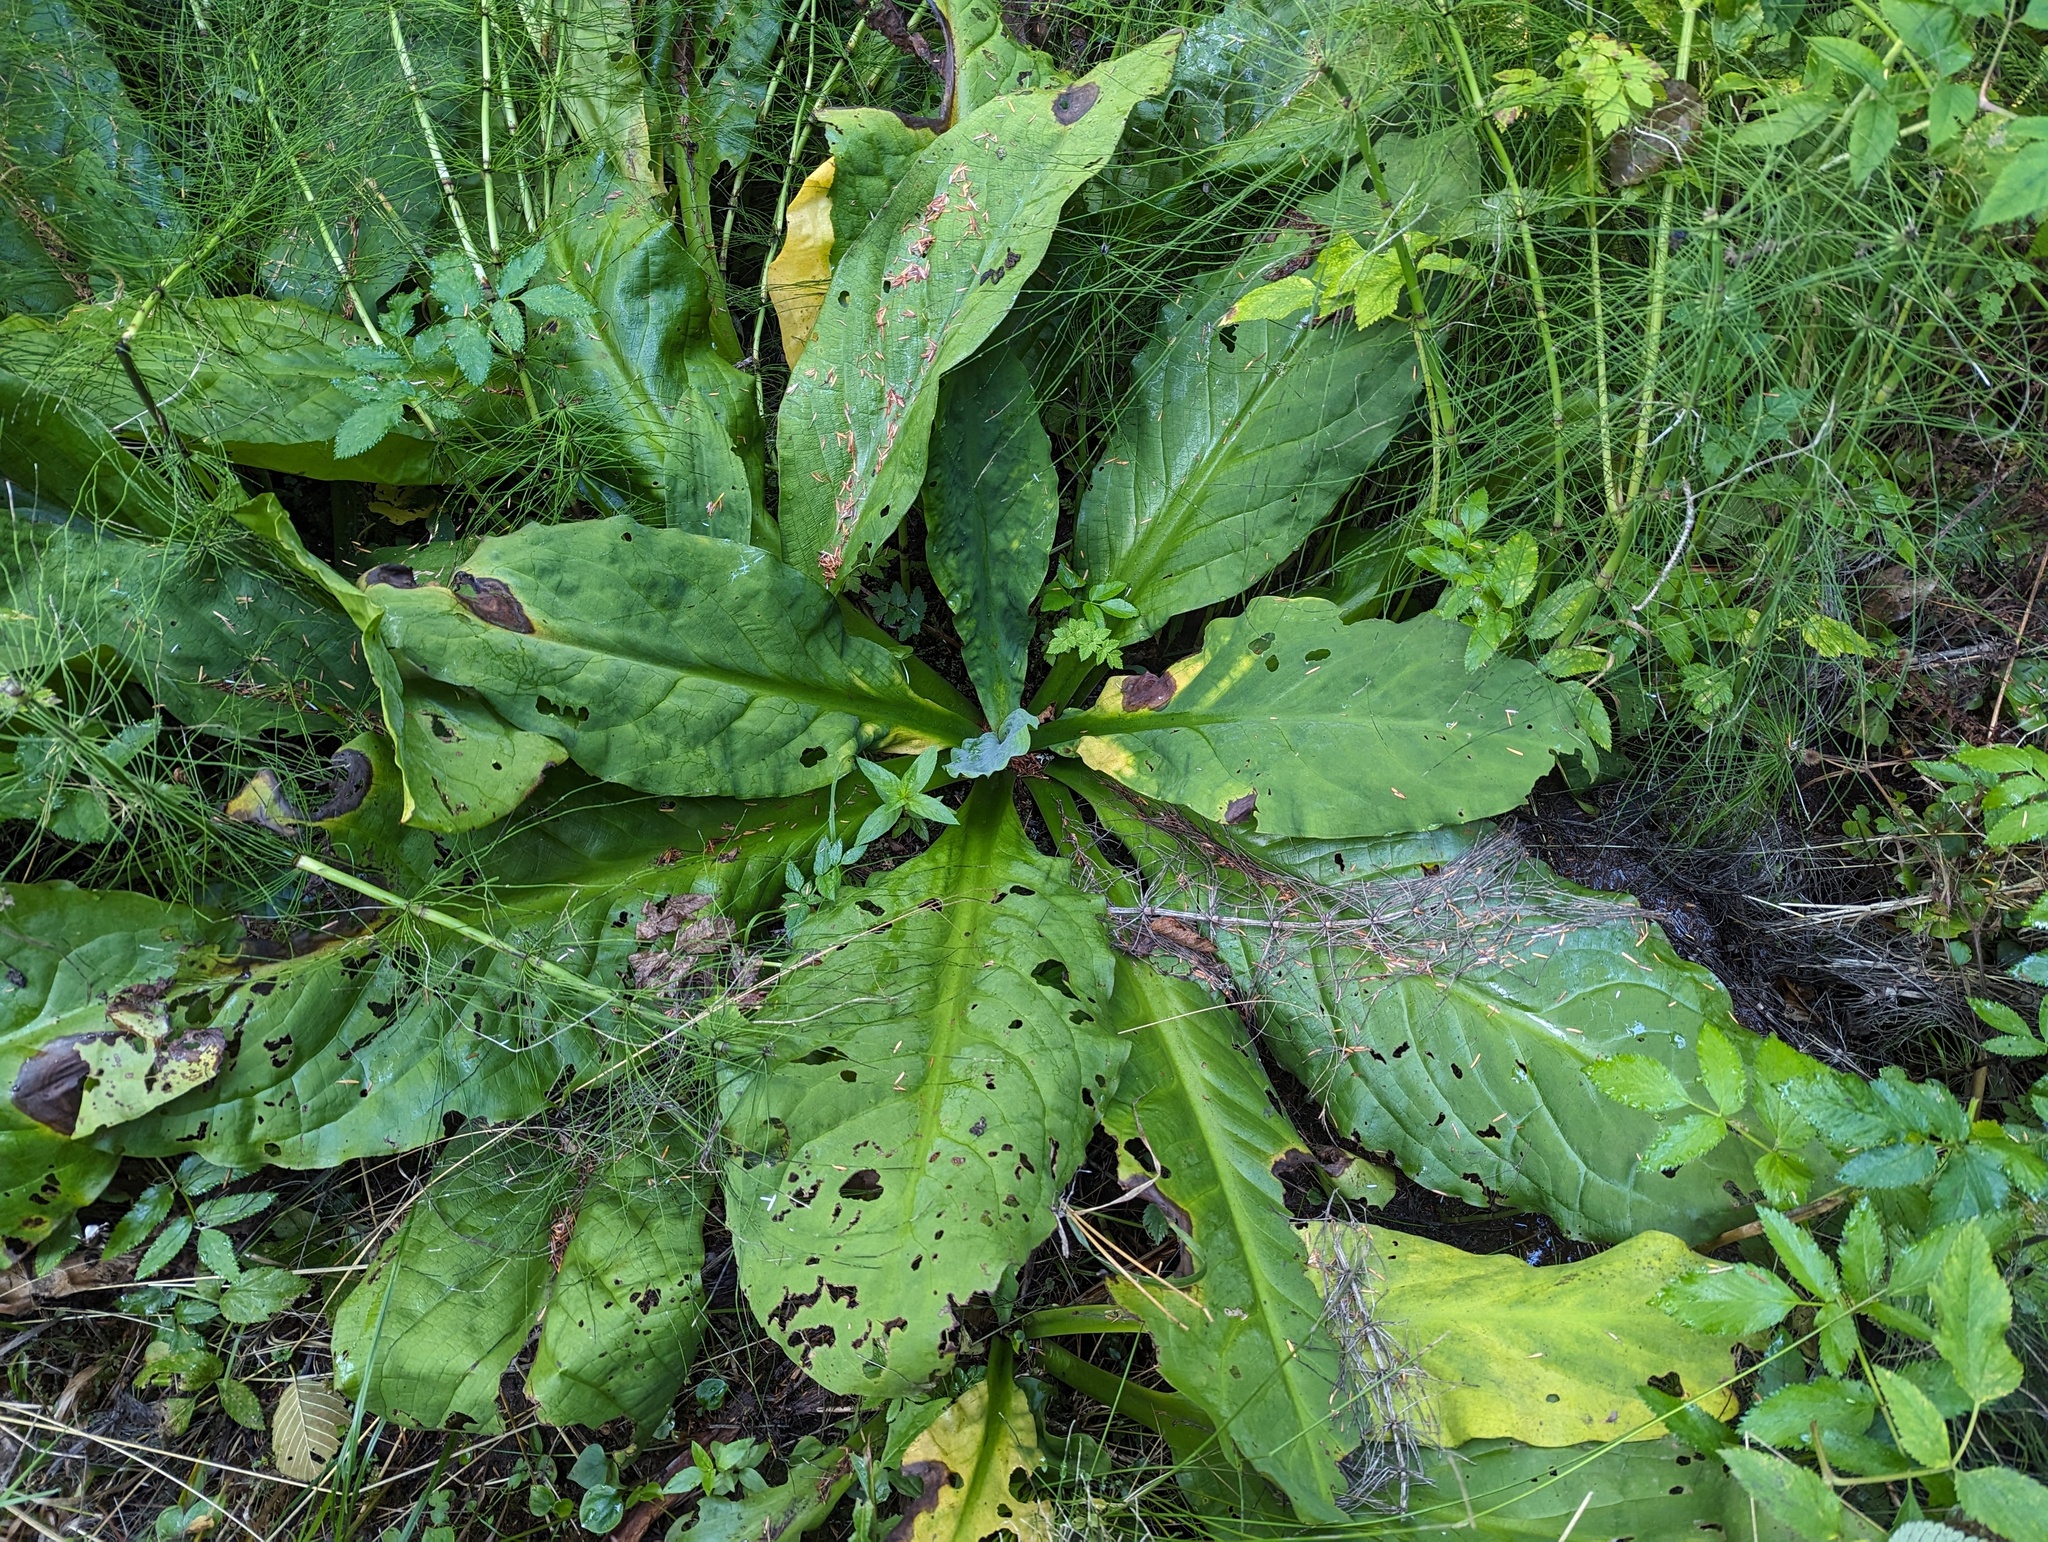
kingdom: Plantae
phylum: Tracheophyta
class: Liliopsida
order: Alismatales
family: Araceae
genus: Lysichiton
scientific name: Lysichiton americanus
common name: American skunk cabbage
